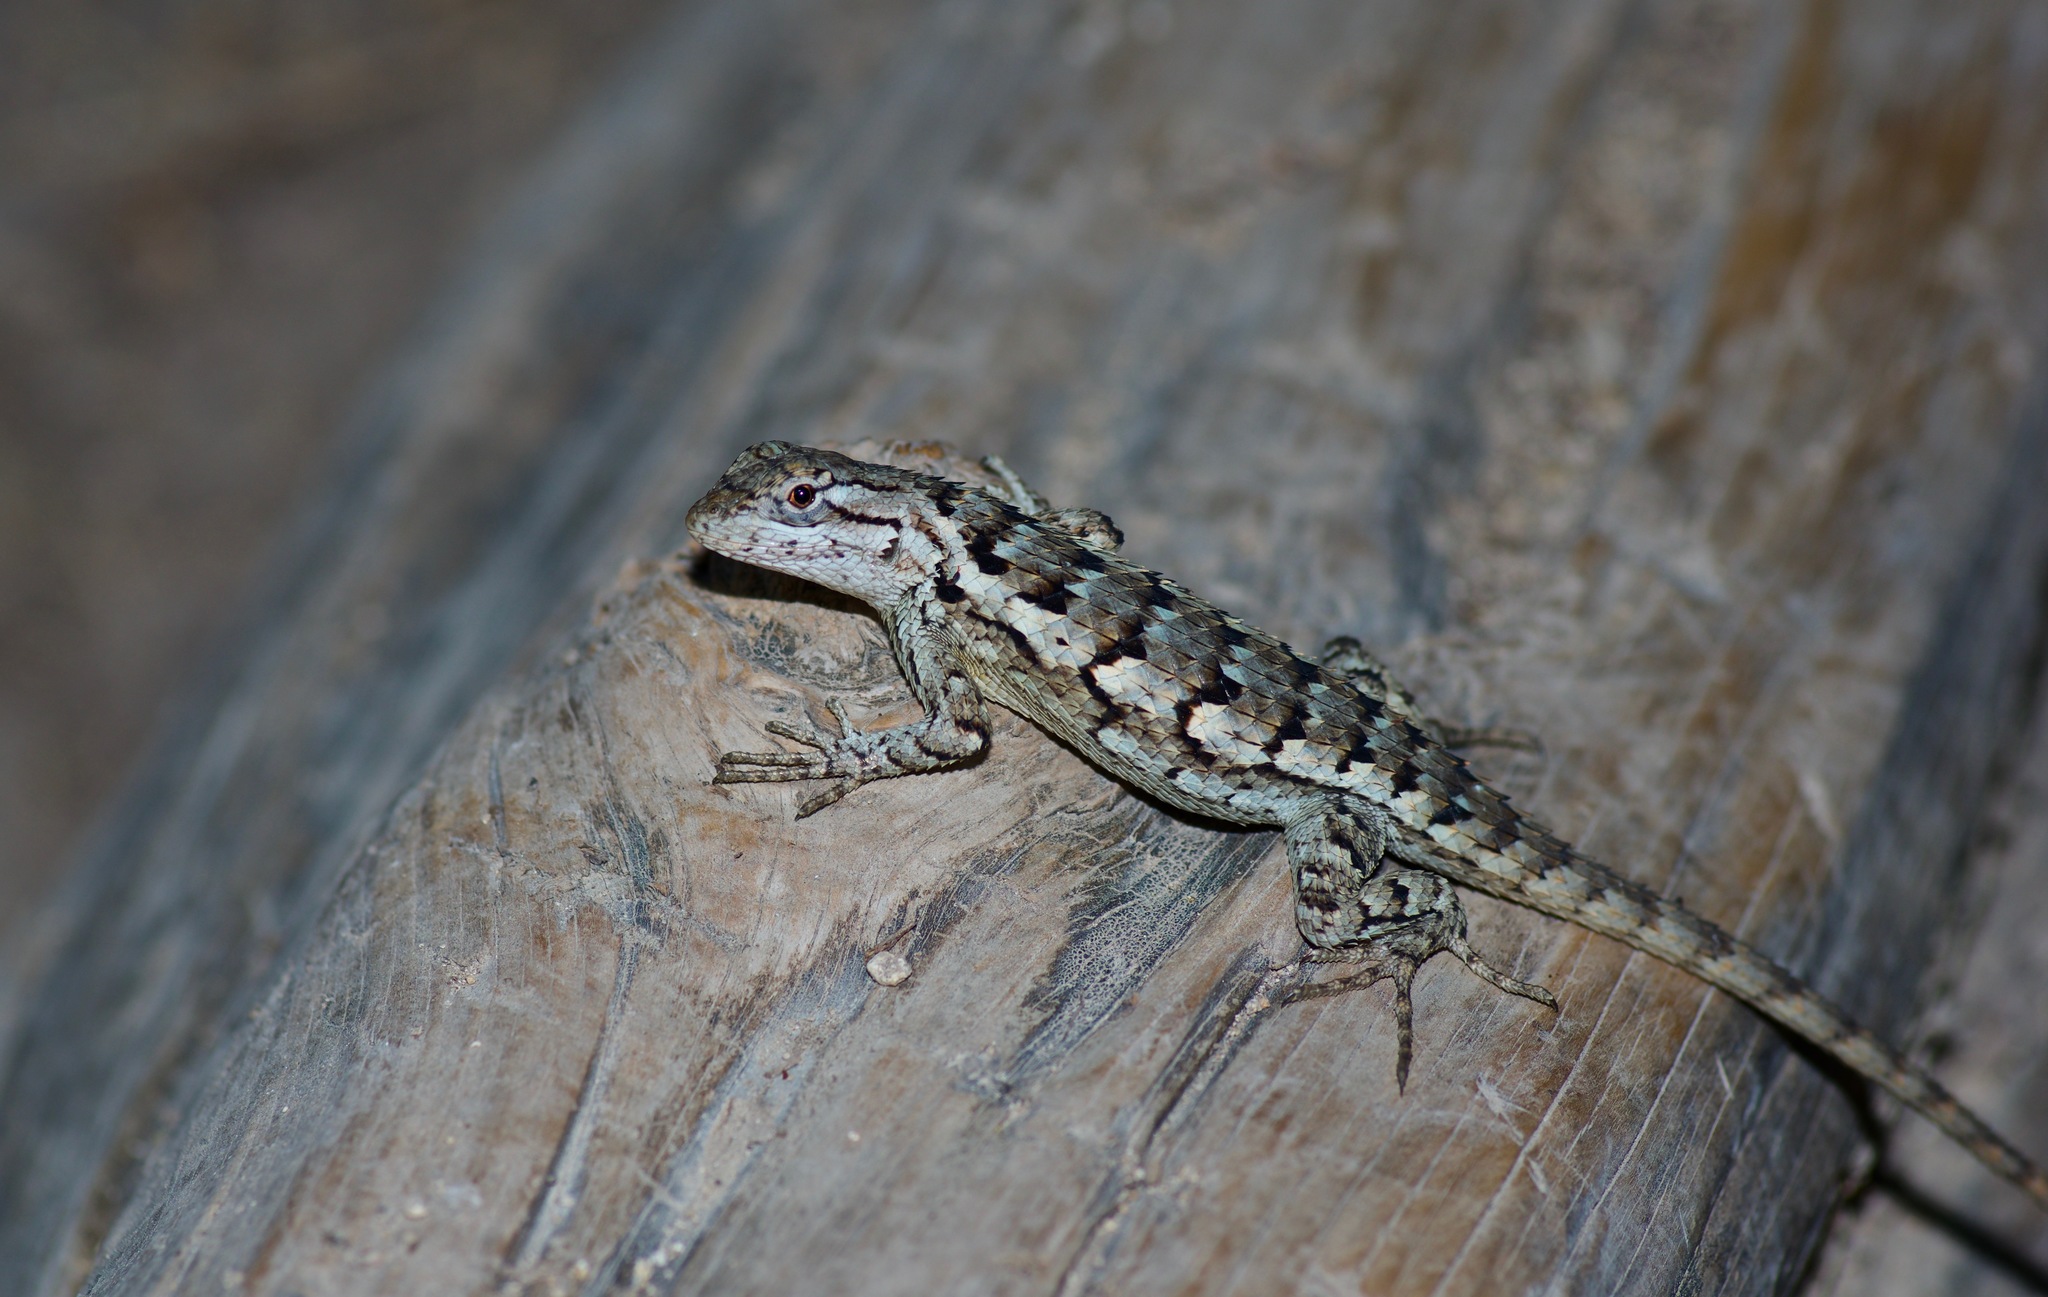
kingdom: Animalia
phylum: Chordata
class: Squamata
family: Phrynosomatidae
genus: Sceloporus
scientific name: Sceloporus olivaceus
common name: Texas spiny lizard
